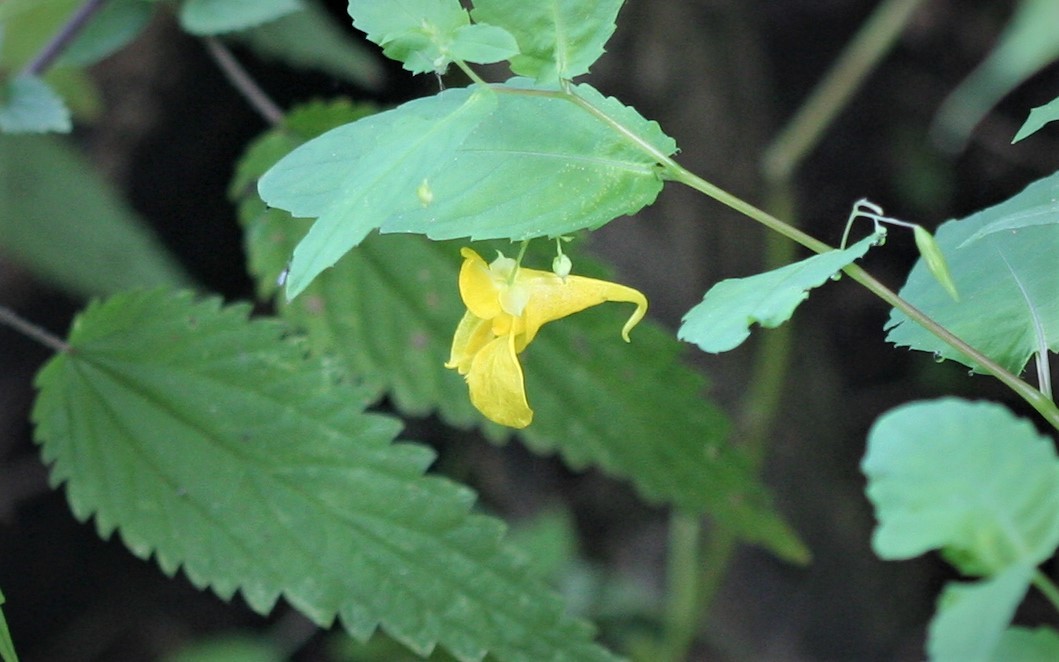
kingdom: Plantae
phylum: Tracheophyta
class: Magnoliopsida
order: Ericales
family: Balsaminaceae
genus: Impatiens
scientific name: Impatiens noli-tangere
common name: Touch-me-not balsam
